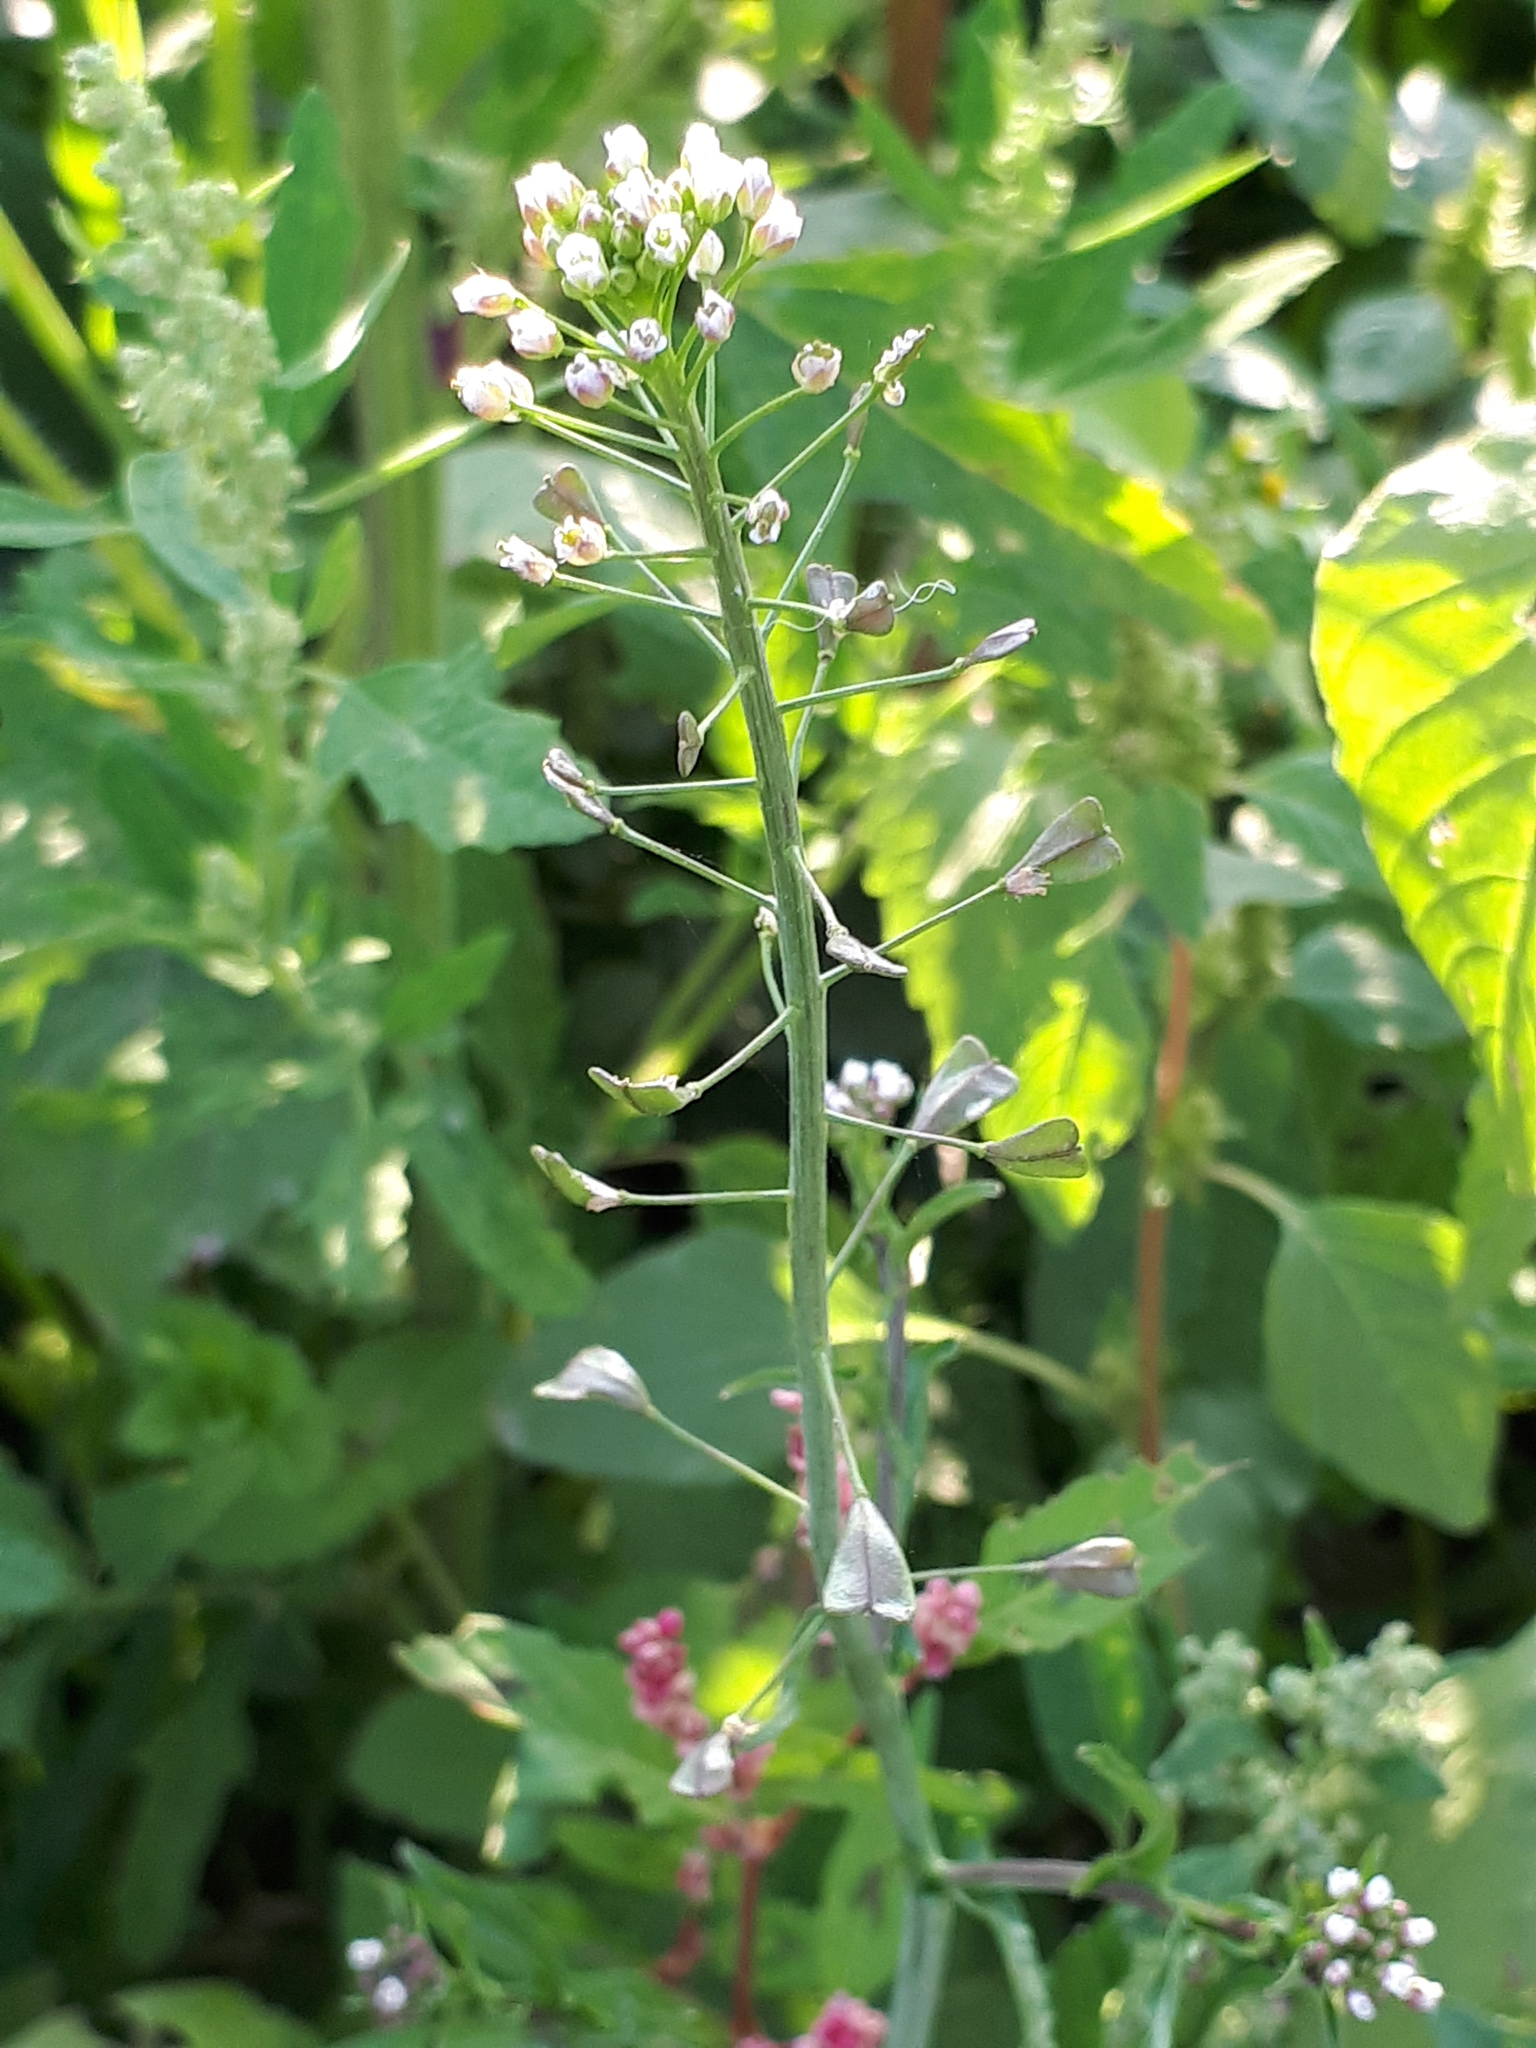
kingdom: Plantae
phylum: Tracheophyta
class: Magnoliopsida
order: Brassicales
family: Brassicaceae
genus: Capsella
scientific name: Capsella bursa-pastoris
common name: Shepherd's purse
